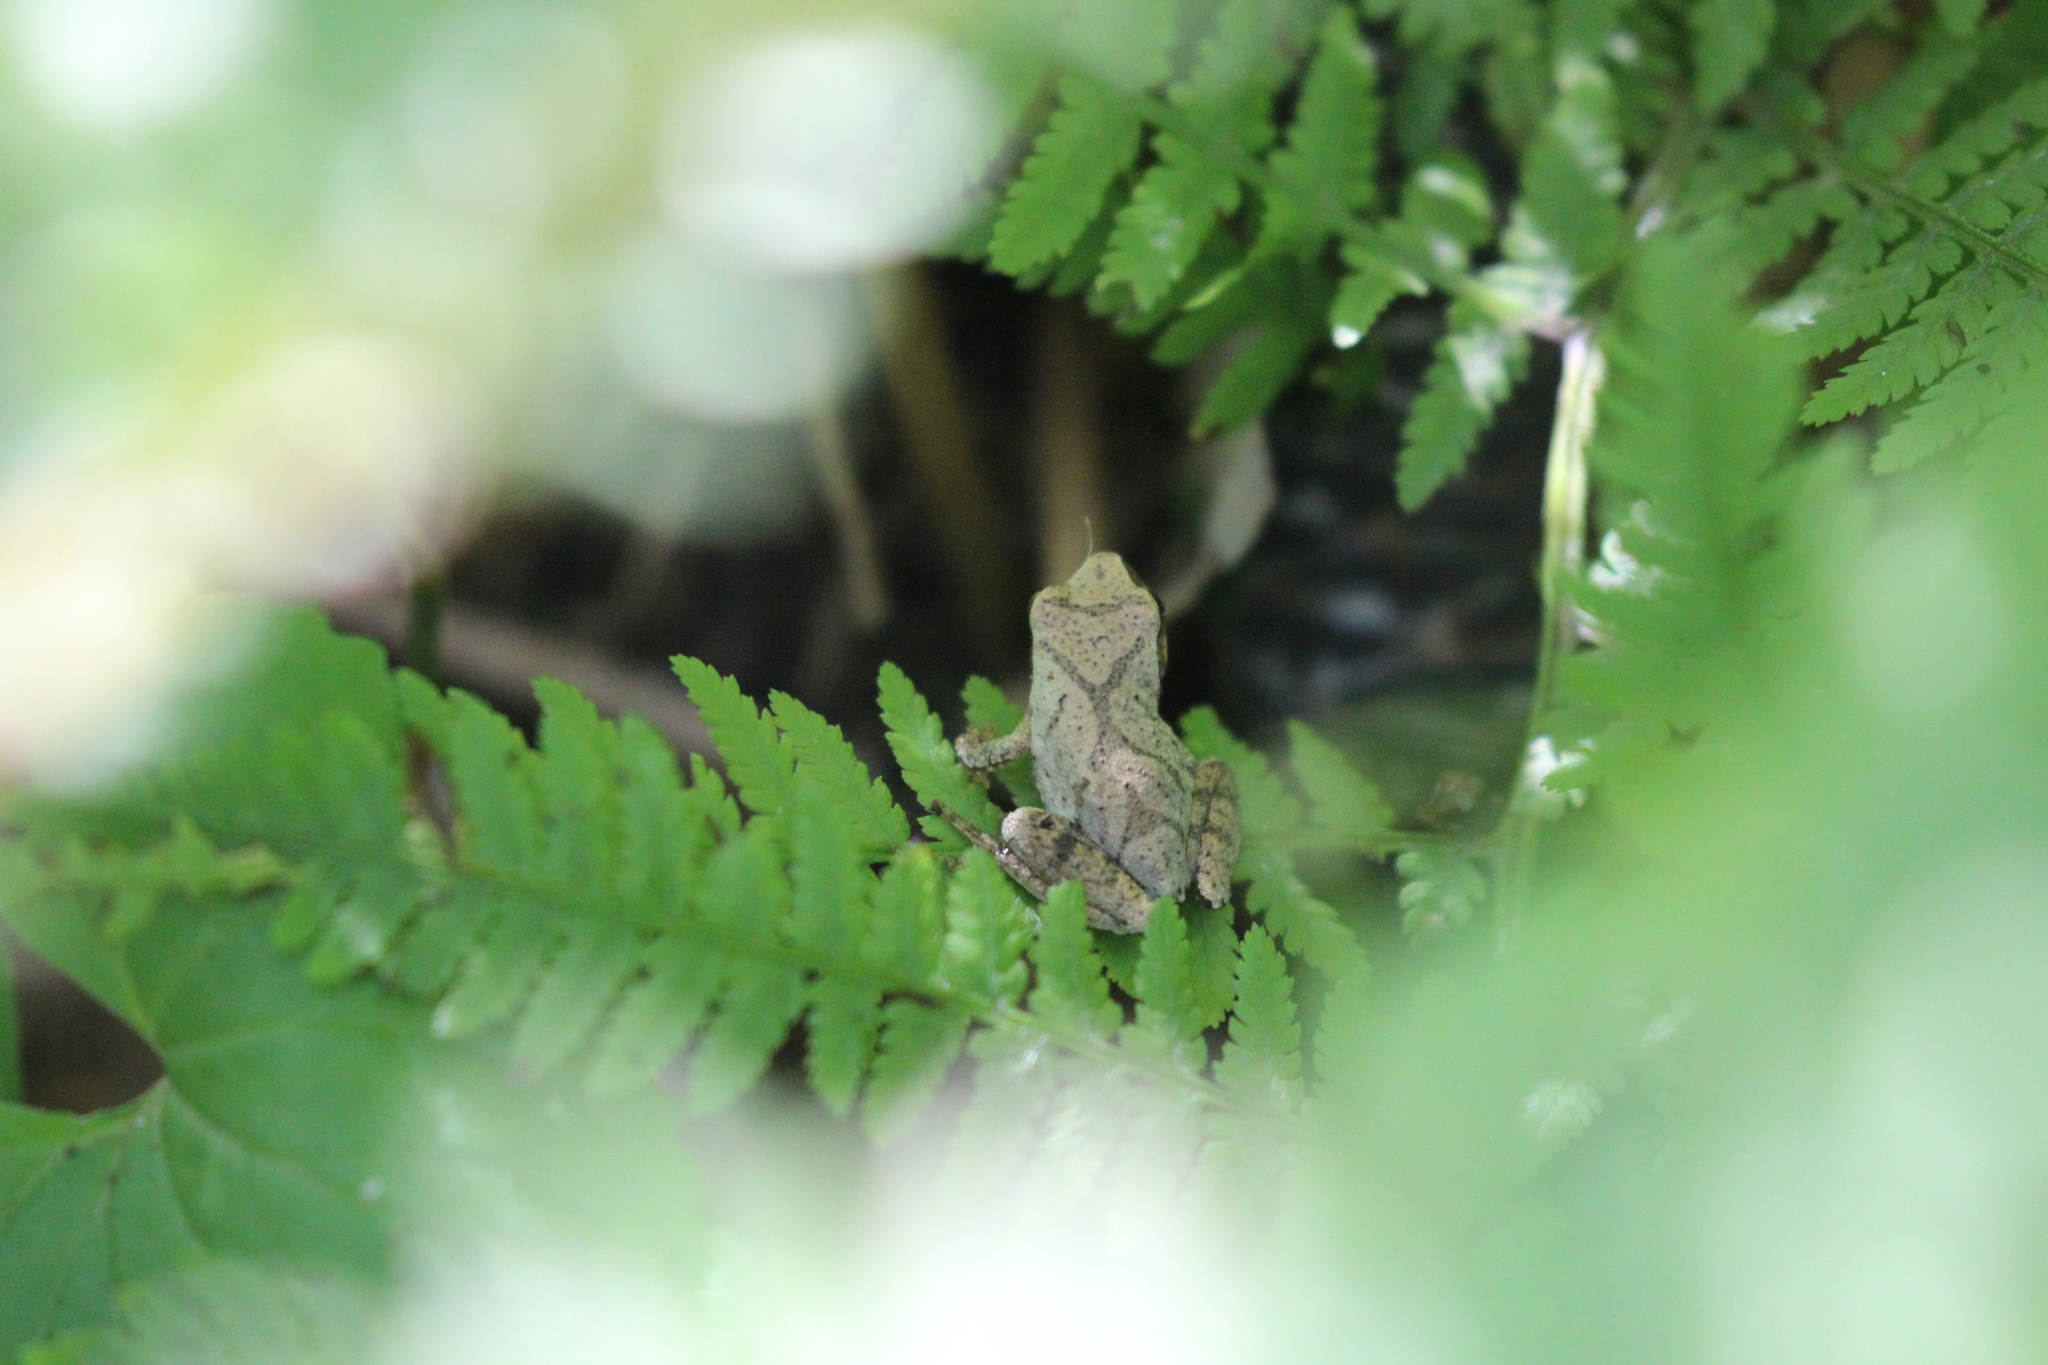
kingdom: Animalia
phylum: Chordata
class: Amphibia
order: Anura
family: Hylidae
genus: Pseudacris
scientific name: Pseudacris crucifer
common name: Spring peeper
